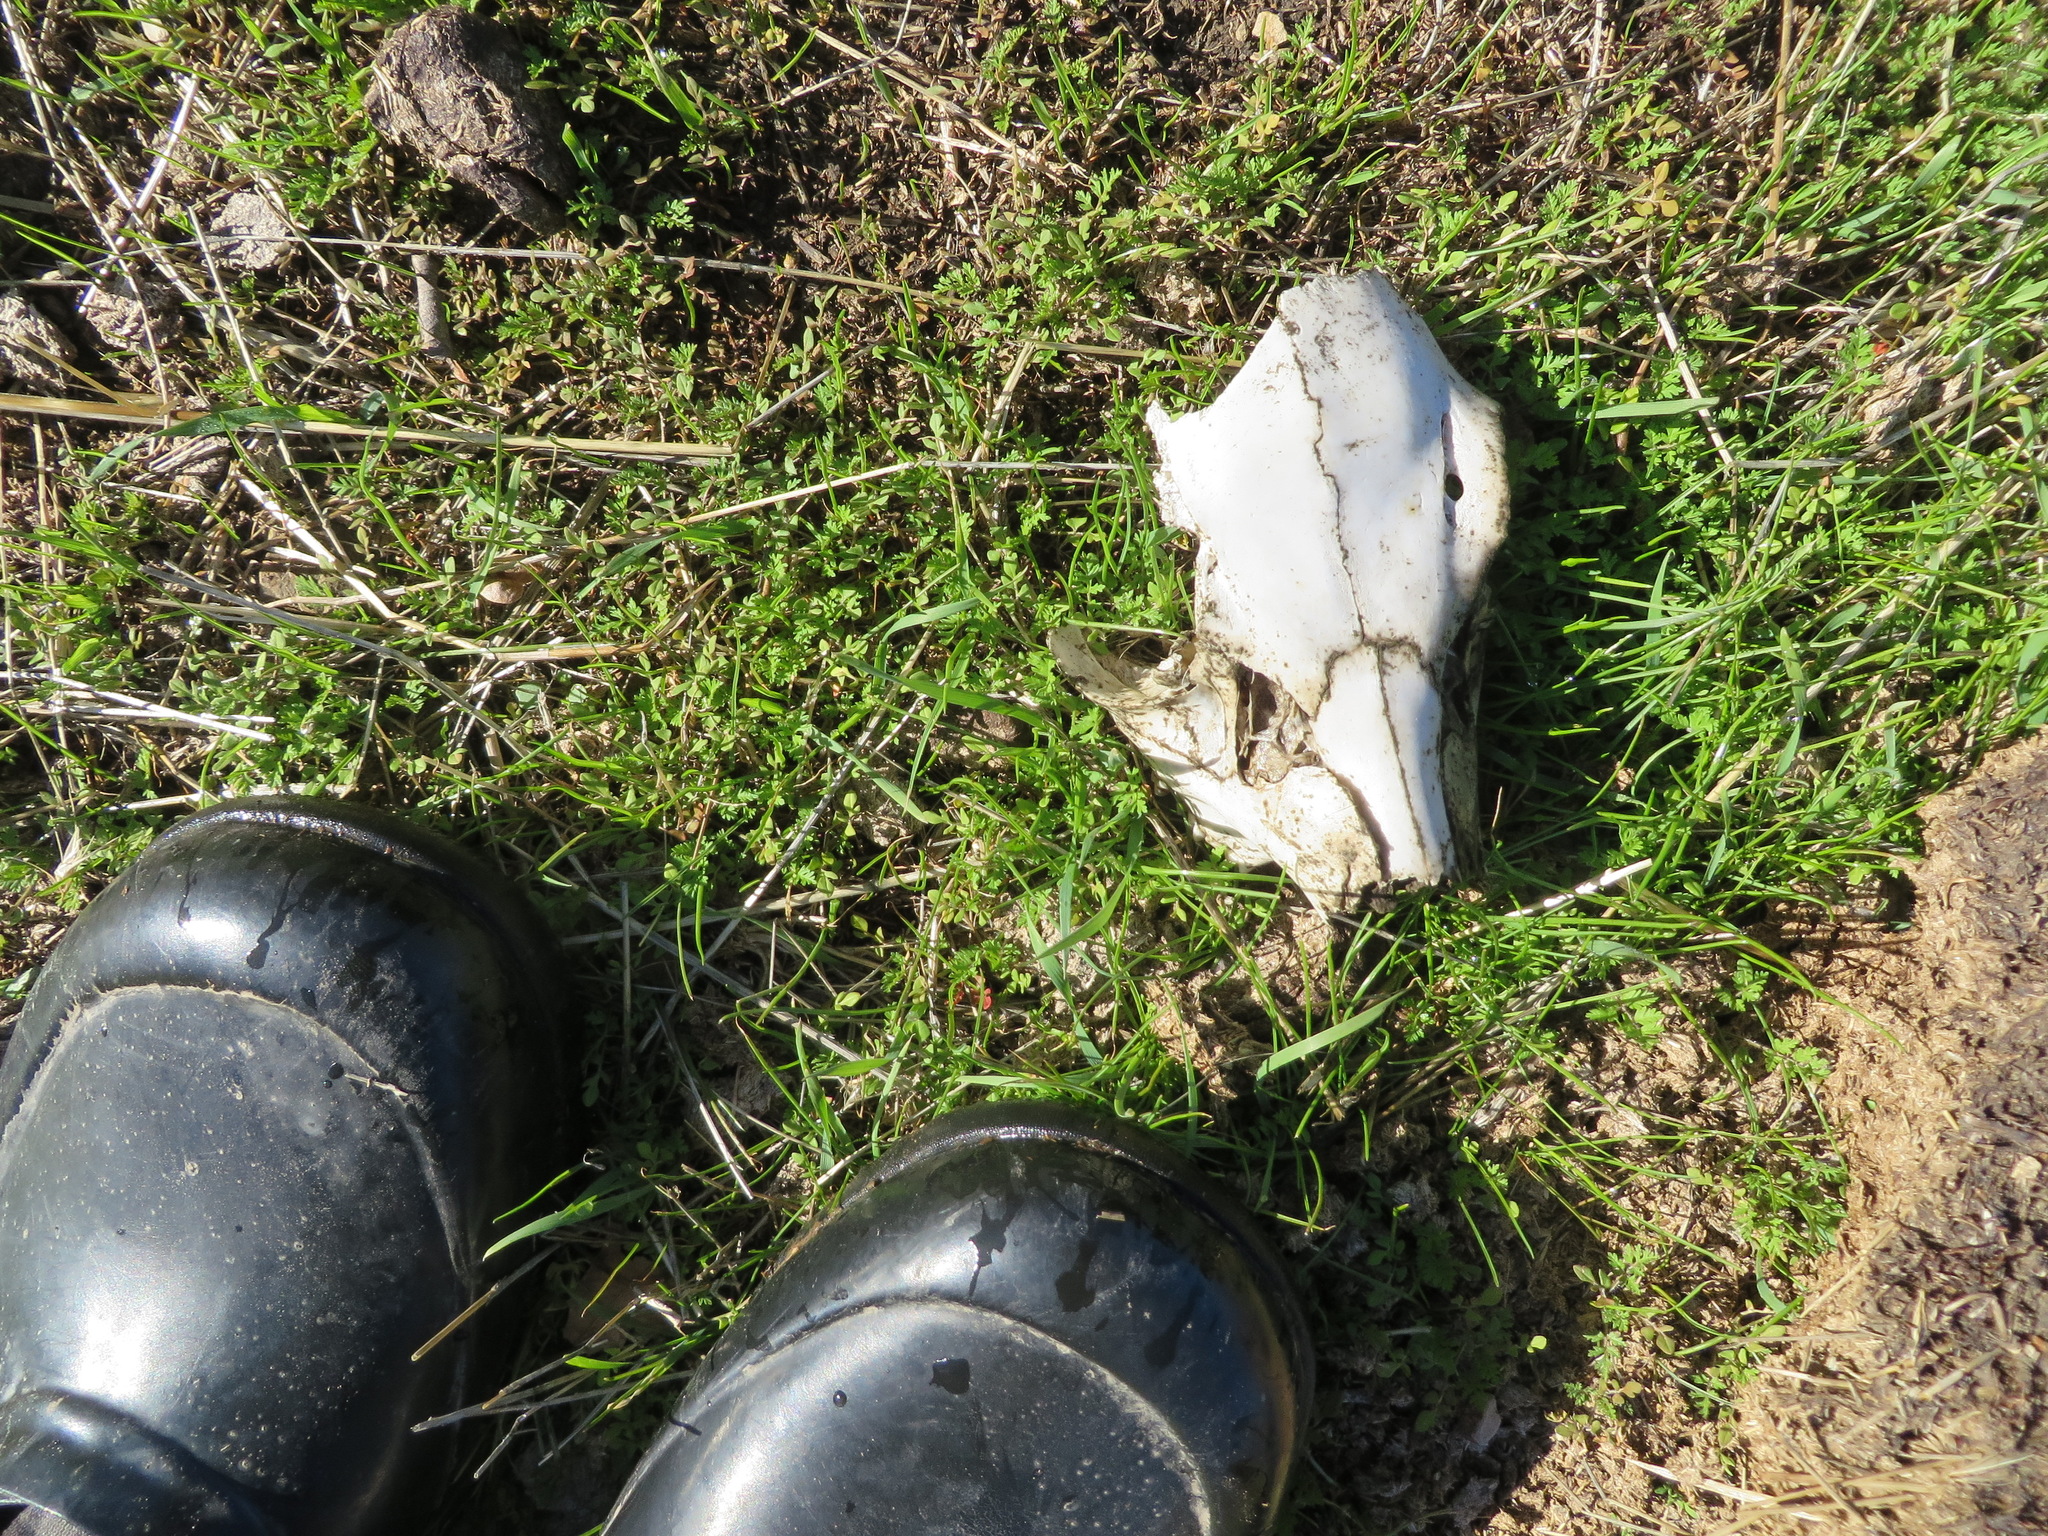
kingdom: Animalia
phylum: Chordata
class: Mammalia
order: Artiodactyla
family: Cervidae
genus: Odocoileus
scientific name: Odocoileus hemionus
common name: Mule deer
